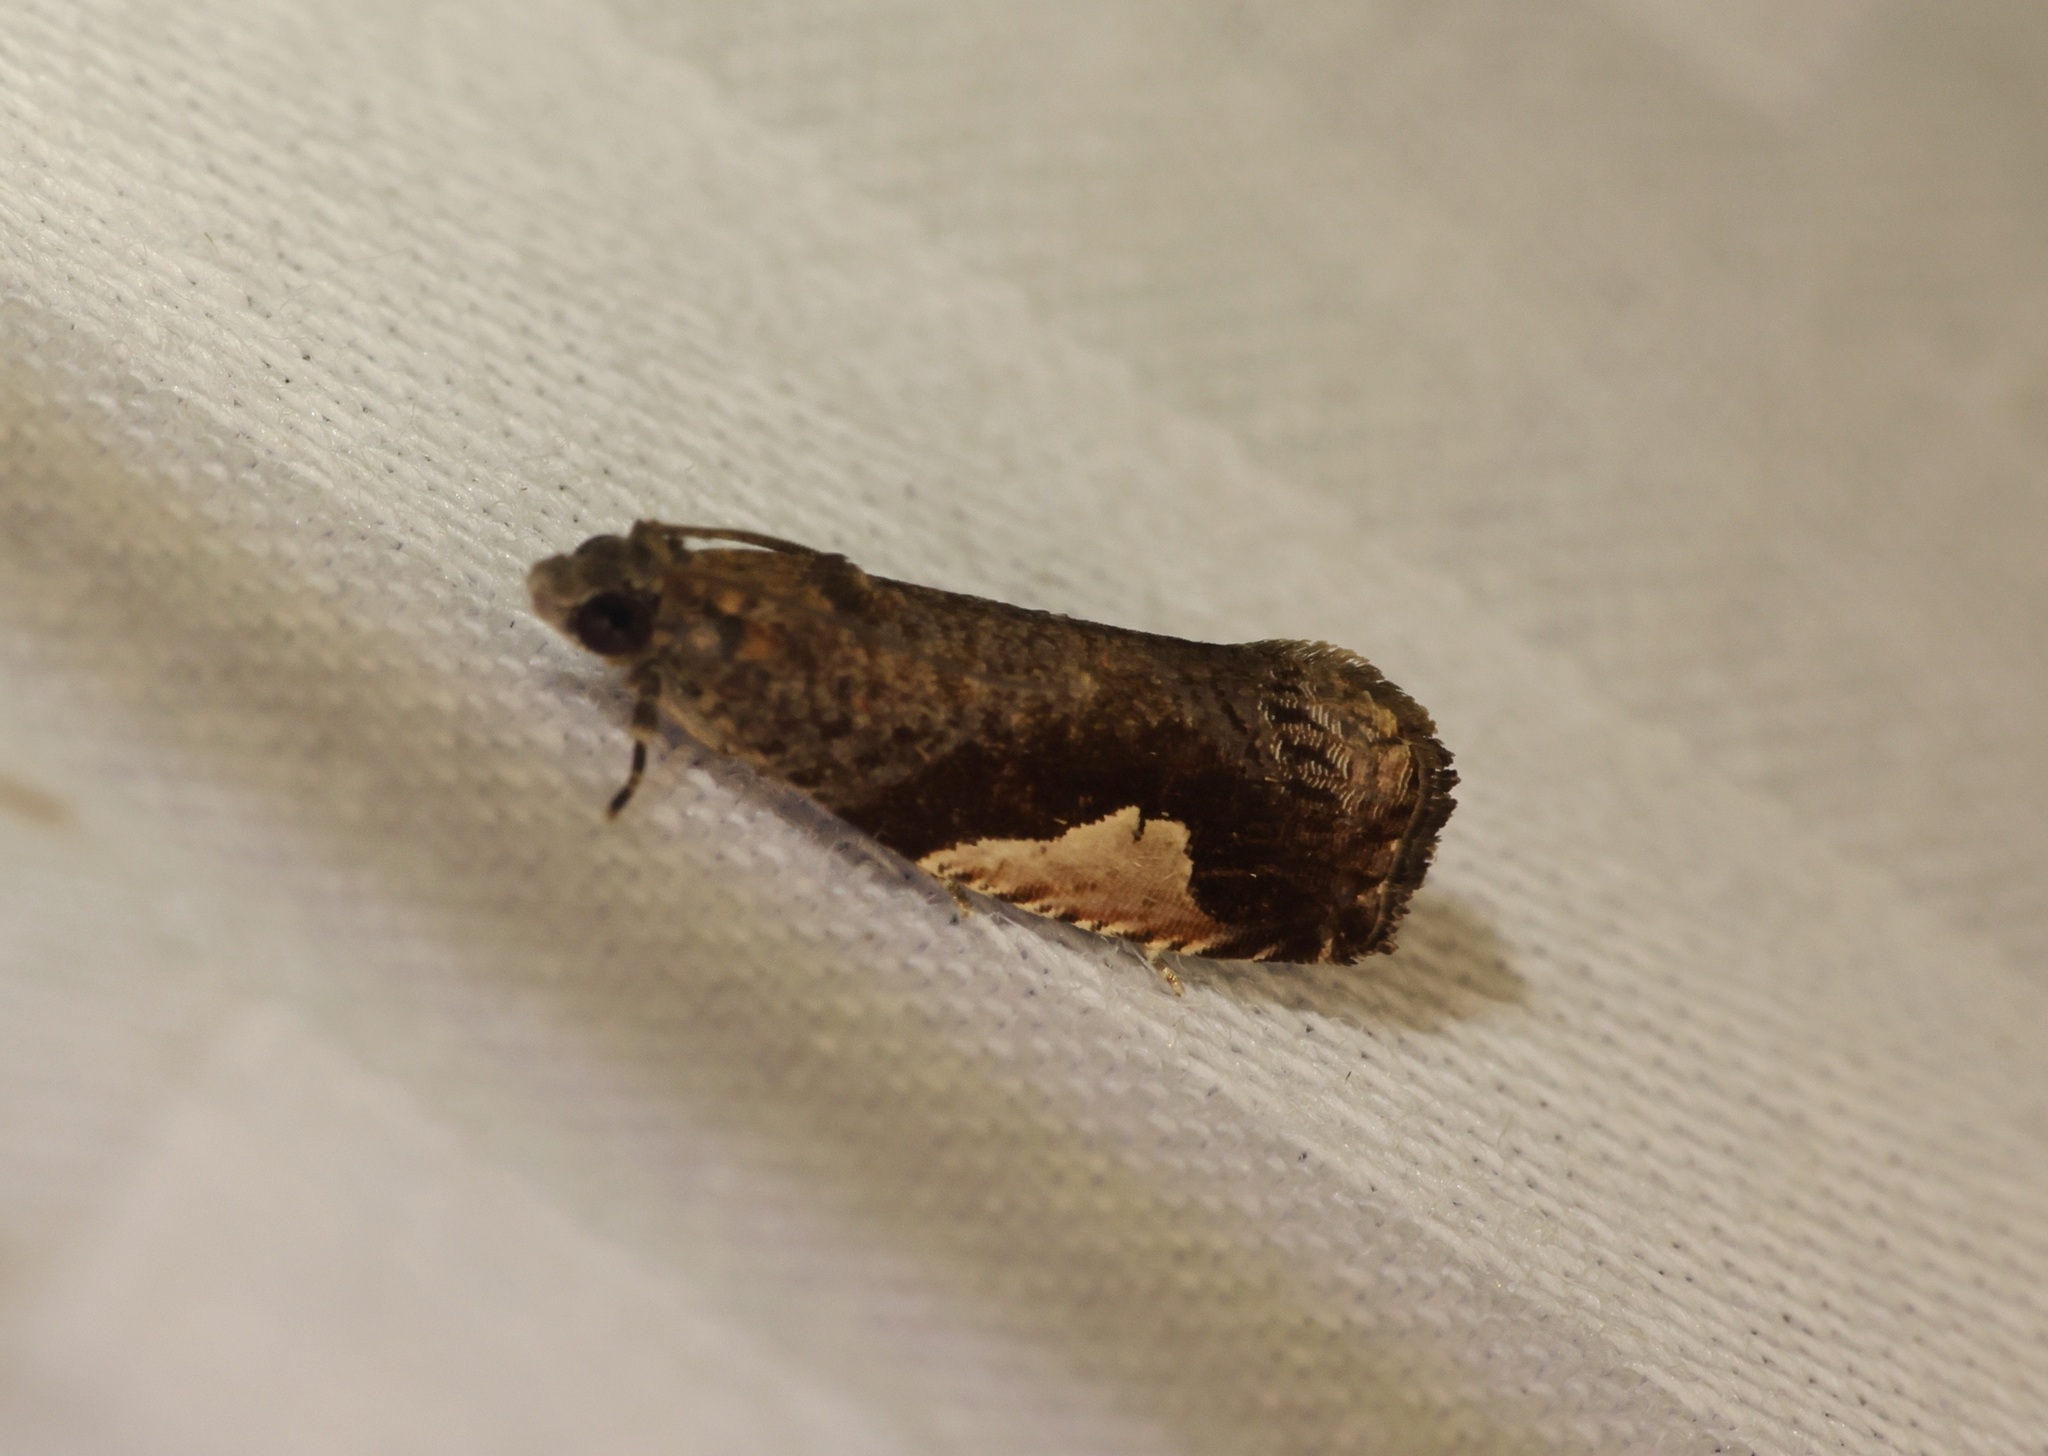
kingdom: Animalia
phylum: Arthropoda
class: Insecta
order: Lepidoptera
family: Tortricidae
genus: Statherotis
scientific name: Statherotis discana
